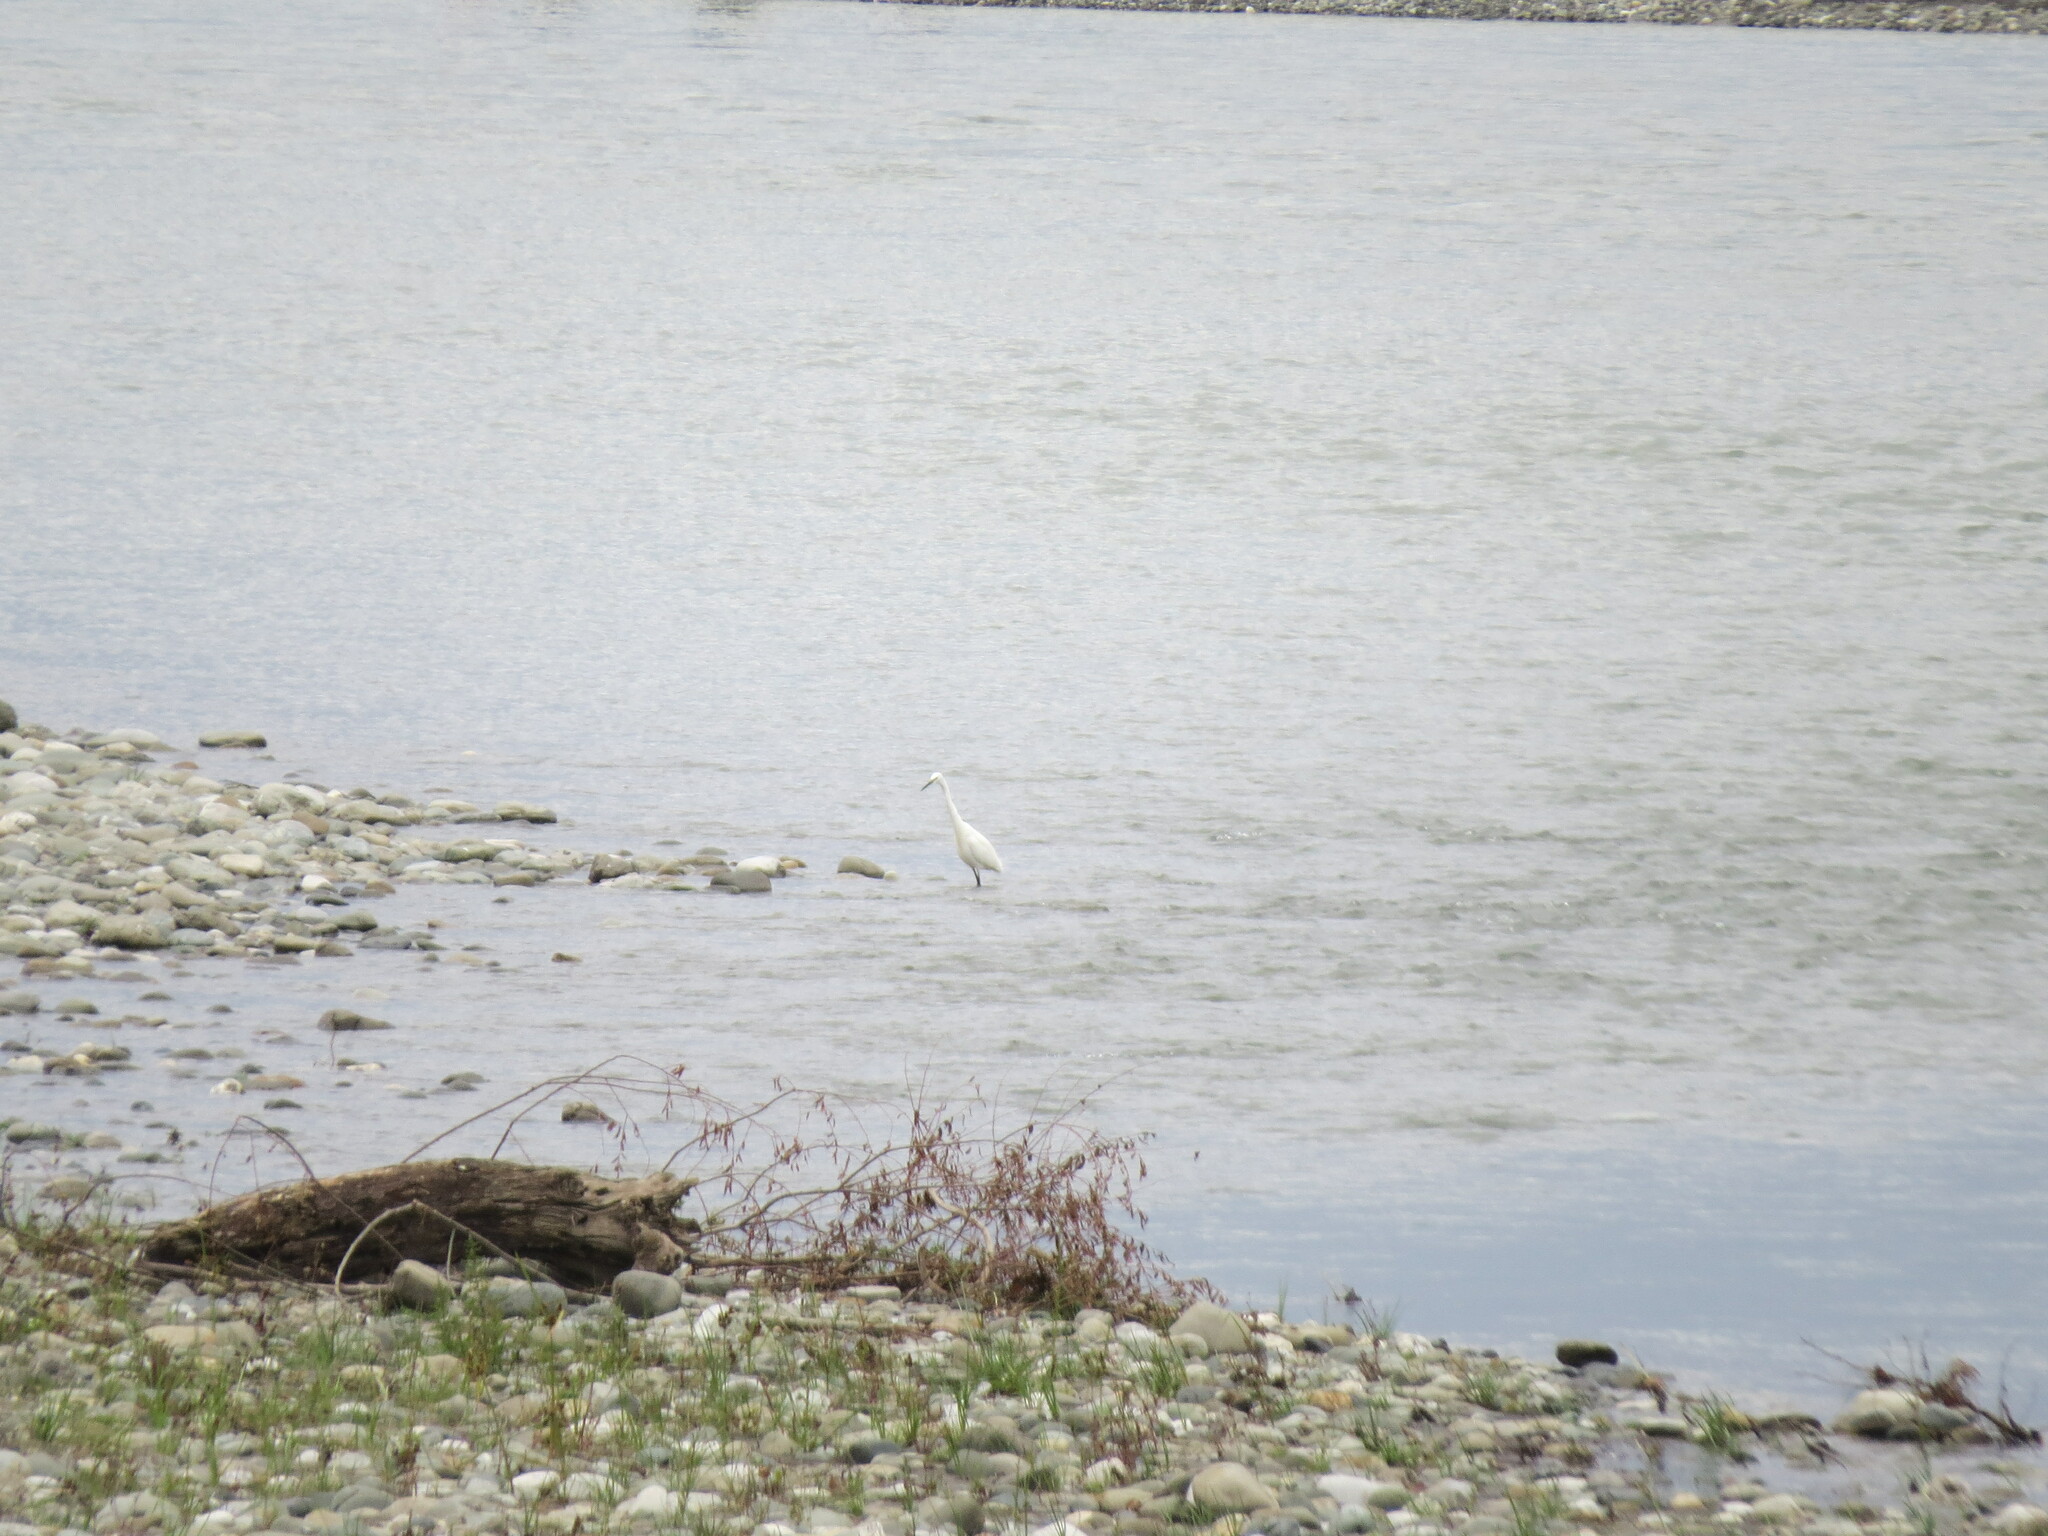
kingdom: Animalia
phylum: Chordata
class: Aves
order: Pelecaniformes
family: Ardeidae
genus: Egretta
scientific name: Egretta garzetta
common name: Little egret
